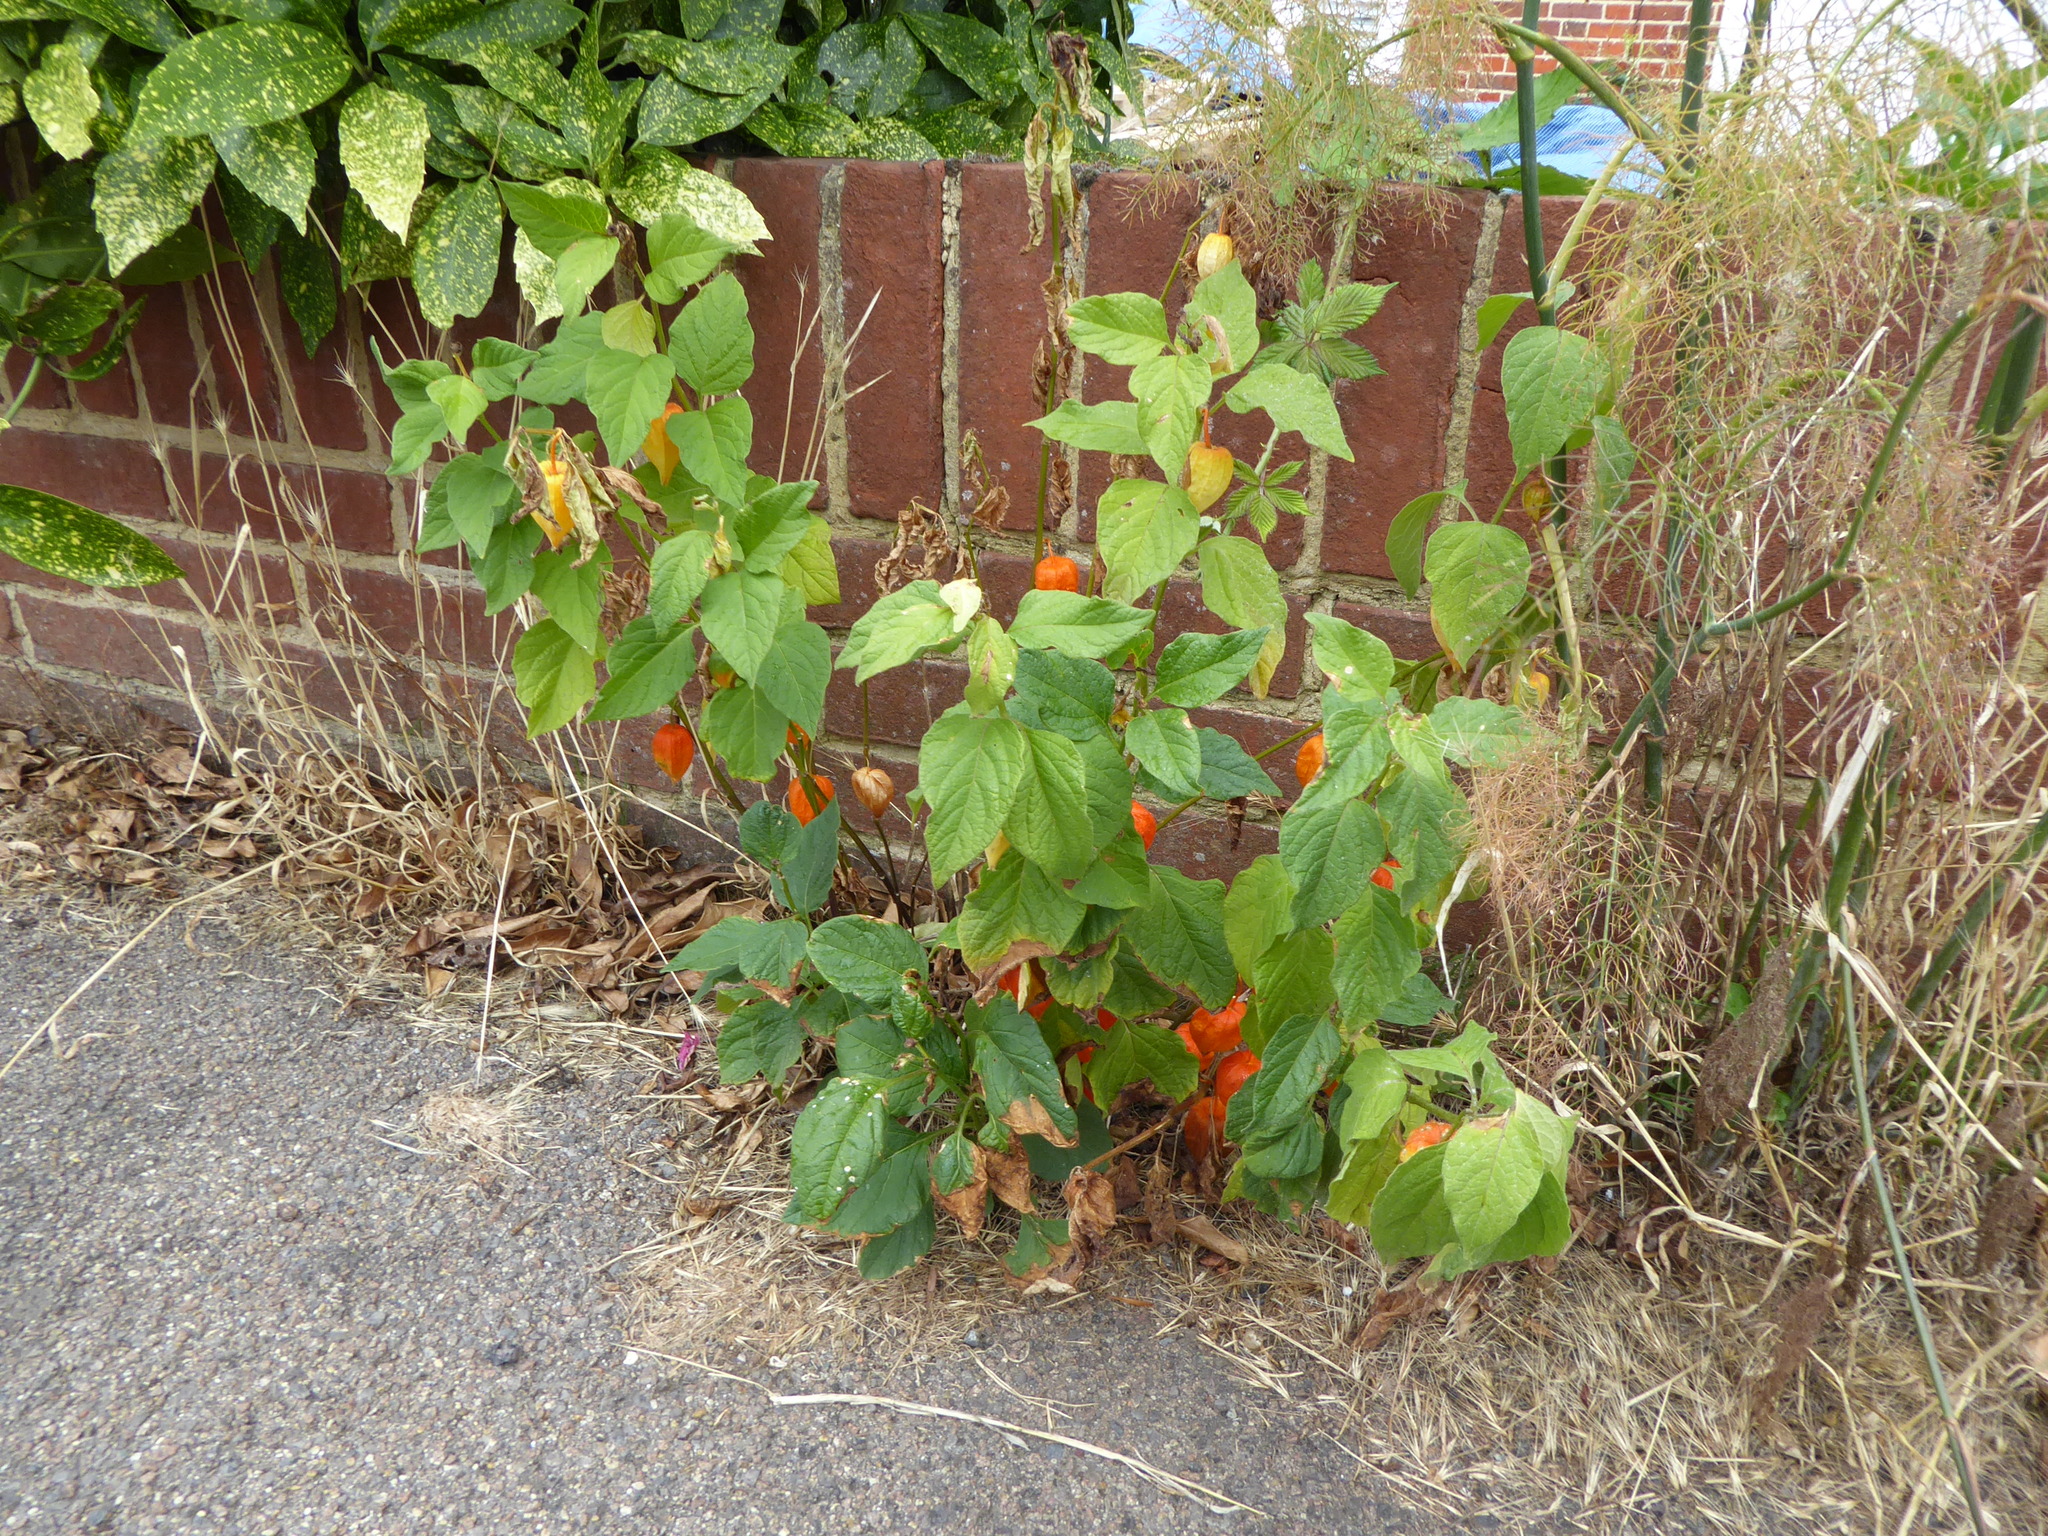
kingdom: Plantae
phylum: Tracheophyta
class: Magnoliopsida
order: Solanales
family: Solanaceae
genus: Alkekengi
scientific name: Alkekengi officinarum
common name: Japanese-lantern
